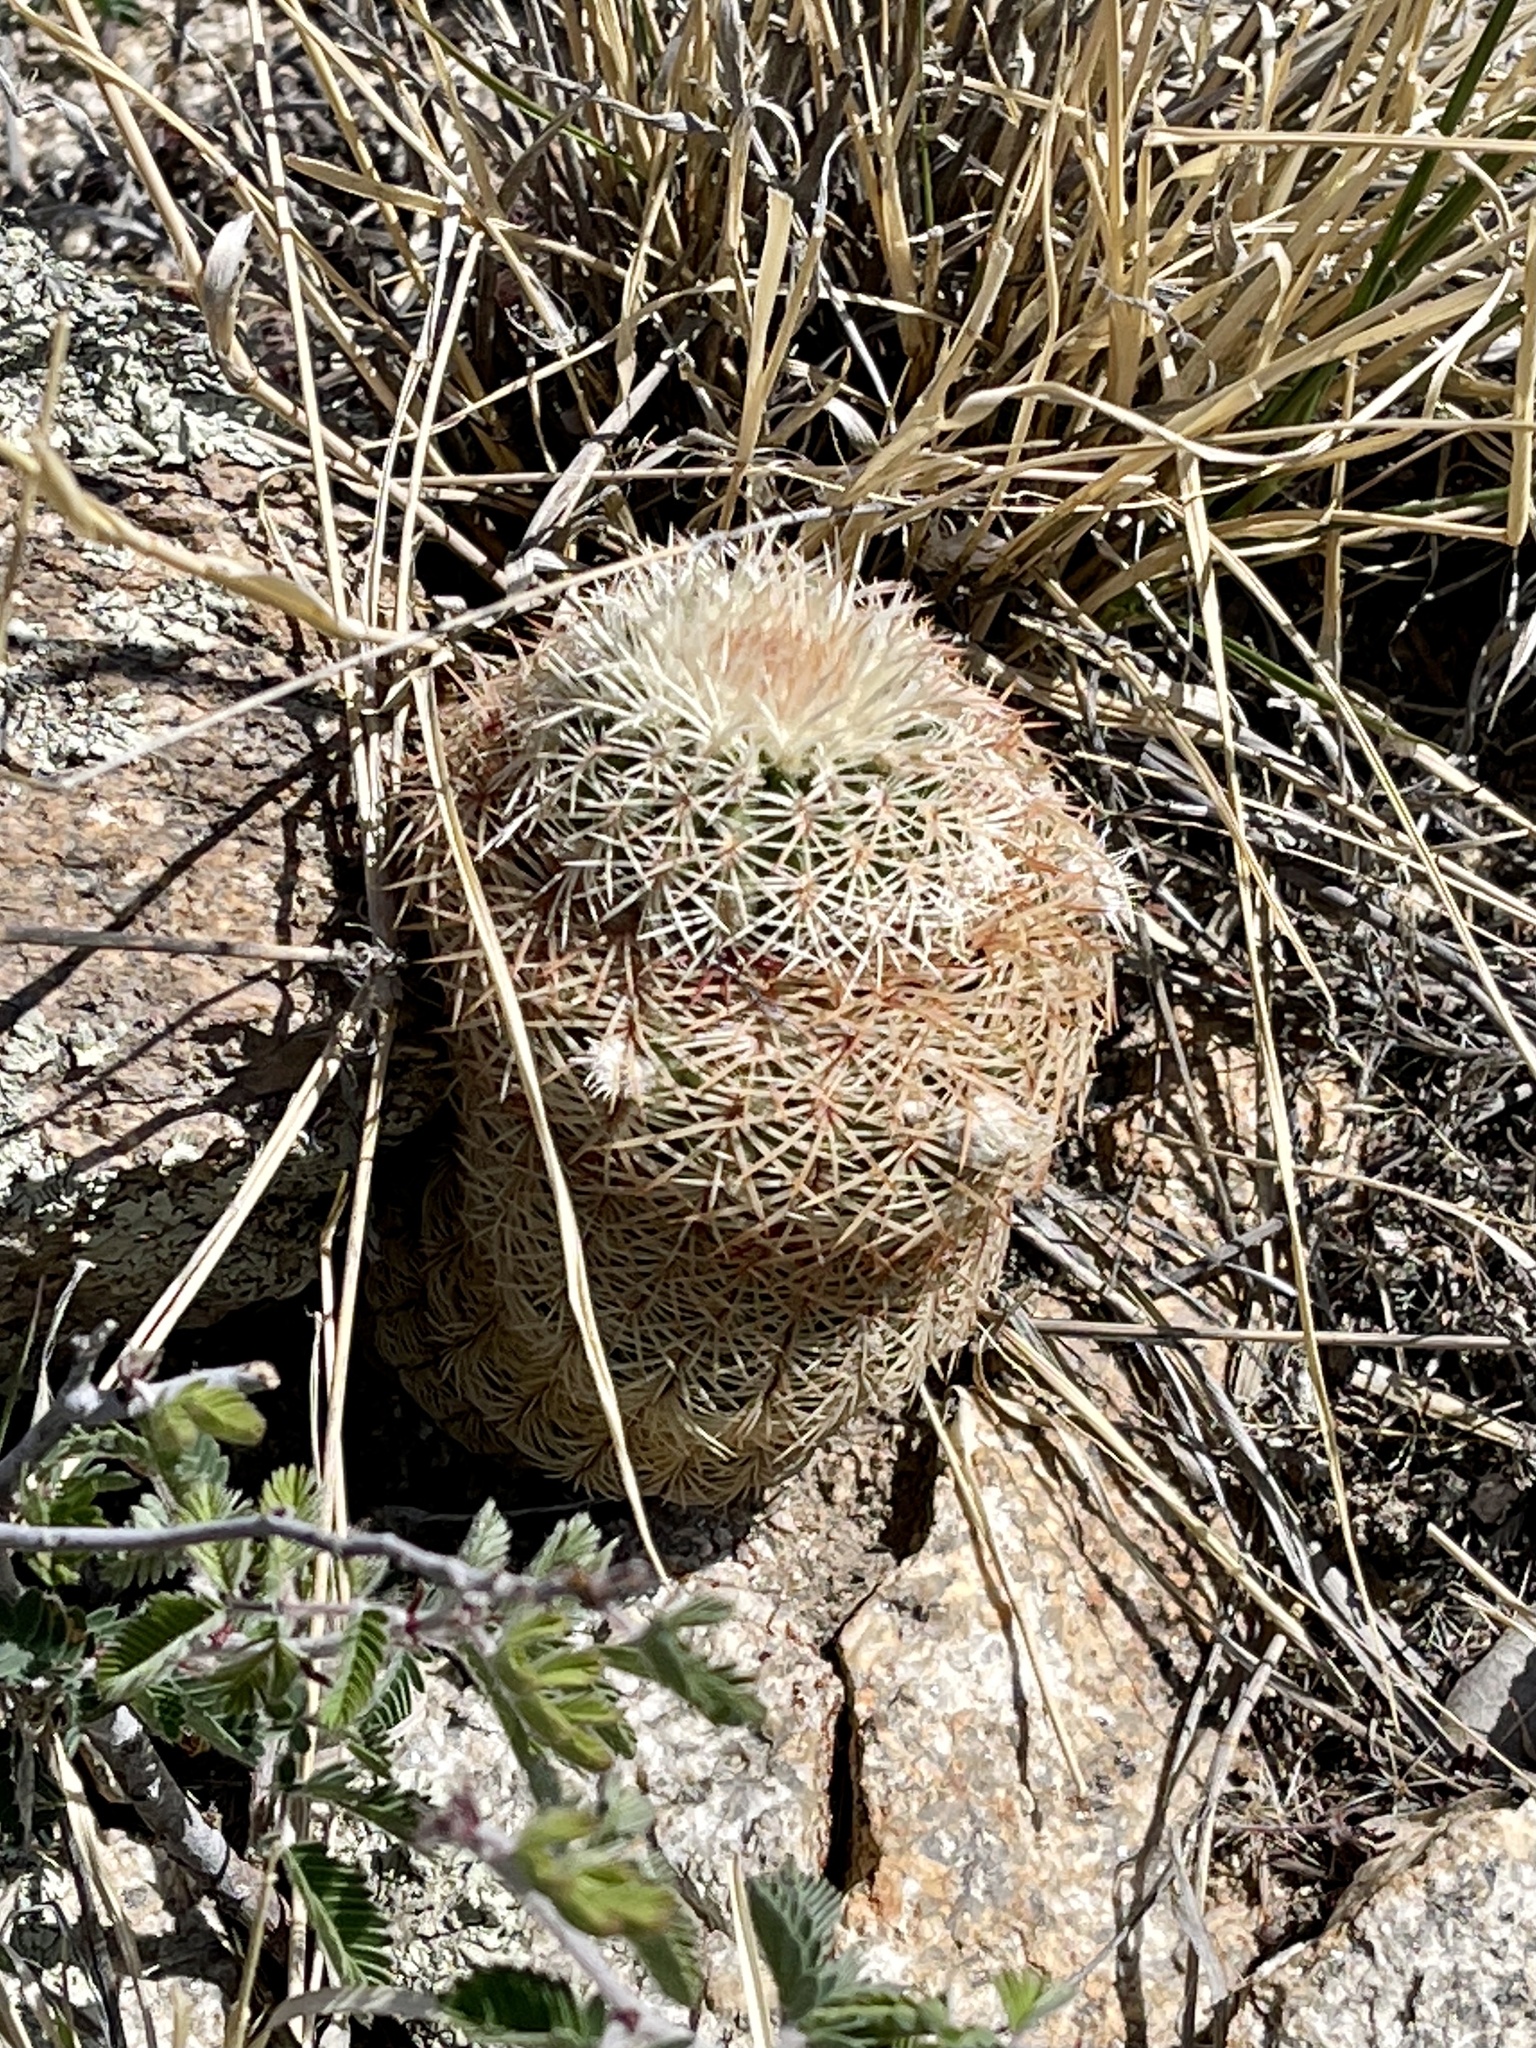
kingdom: Plantae
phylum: Tracheophyta
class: Magnoliopsida
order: Caryophyllales
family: Cactaceae
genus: Echinocereus
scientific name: Echinocereus rigidissimus
